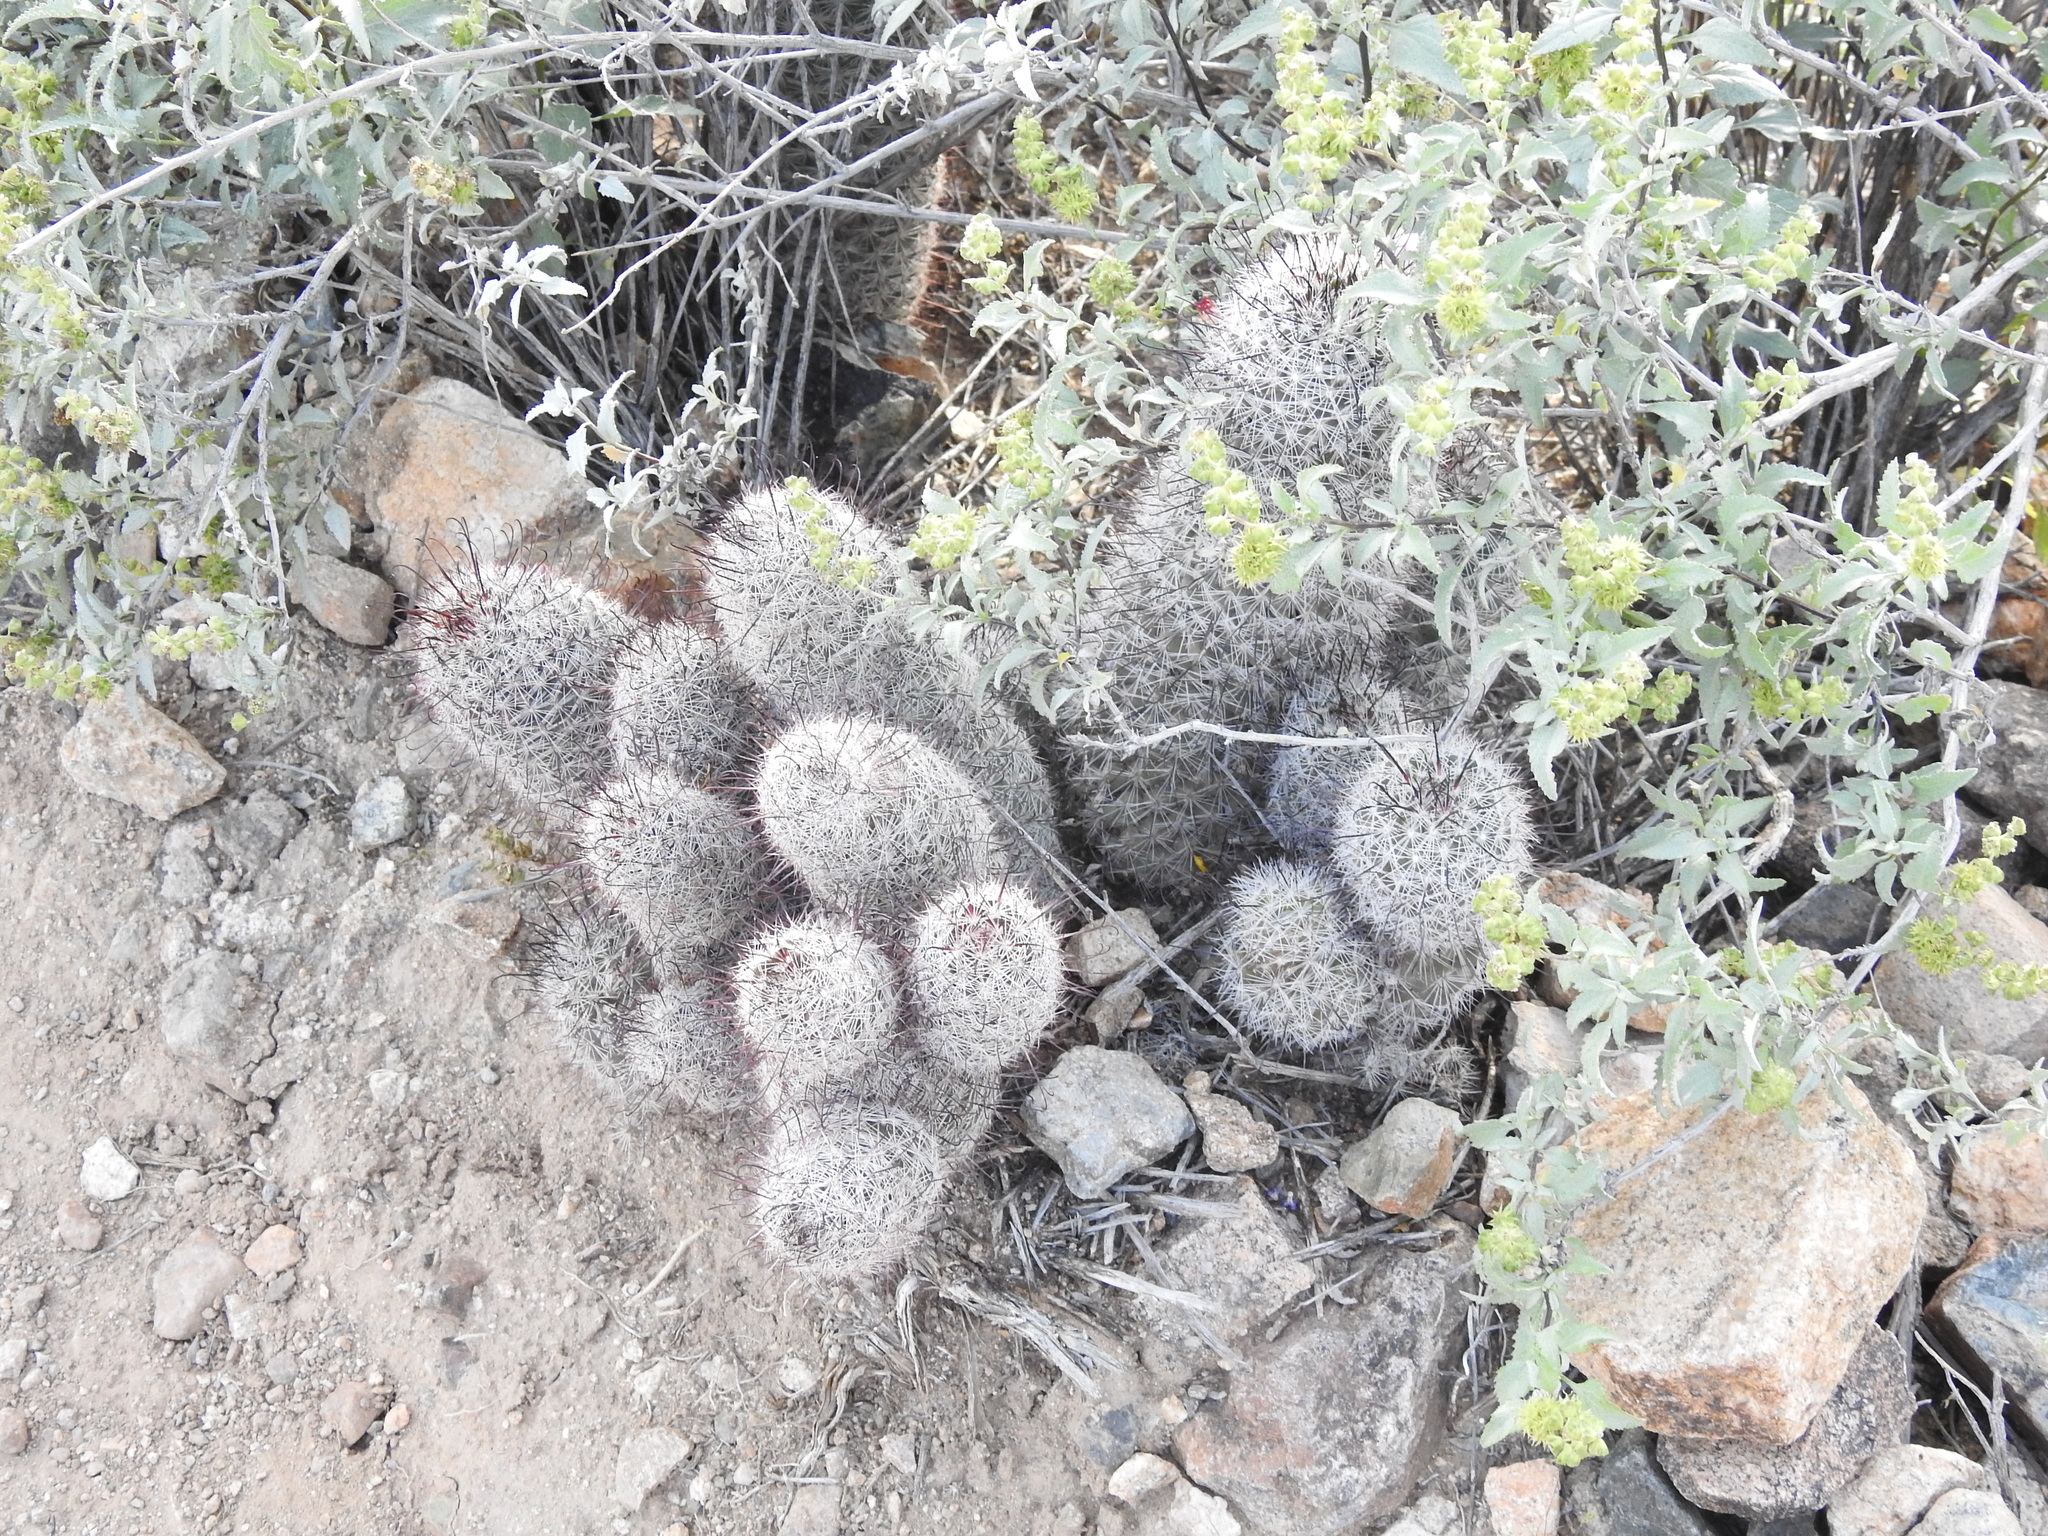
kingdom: Plantae
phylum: Tracheophyta
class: Magnoliopsida
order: Caryophyllales
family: Cactaceae
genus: Cochemiea
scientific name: Cochemiea grahamii
